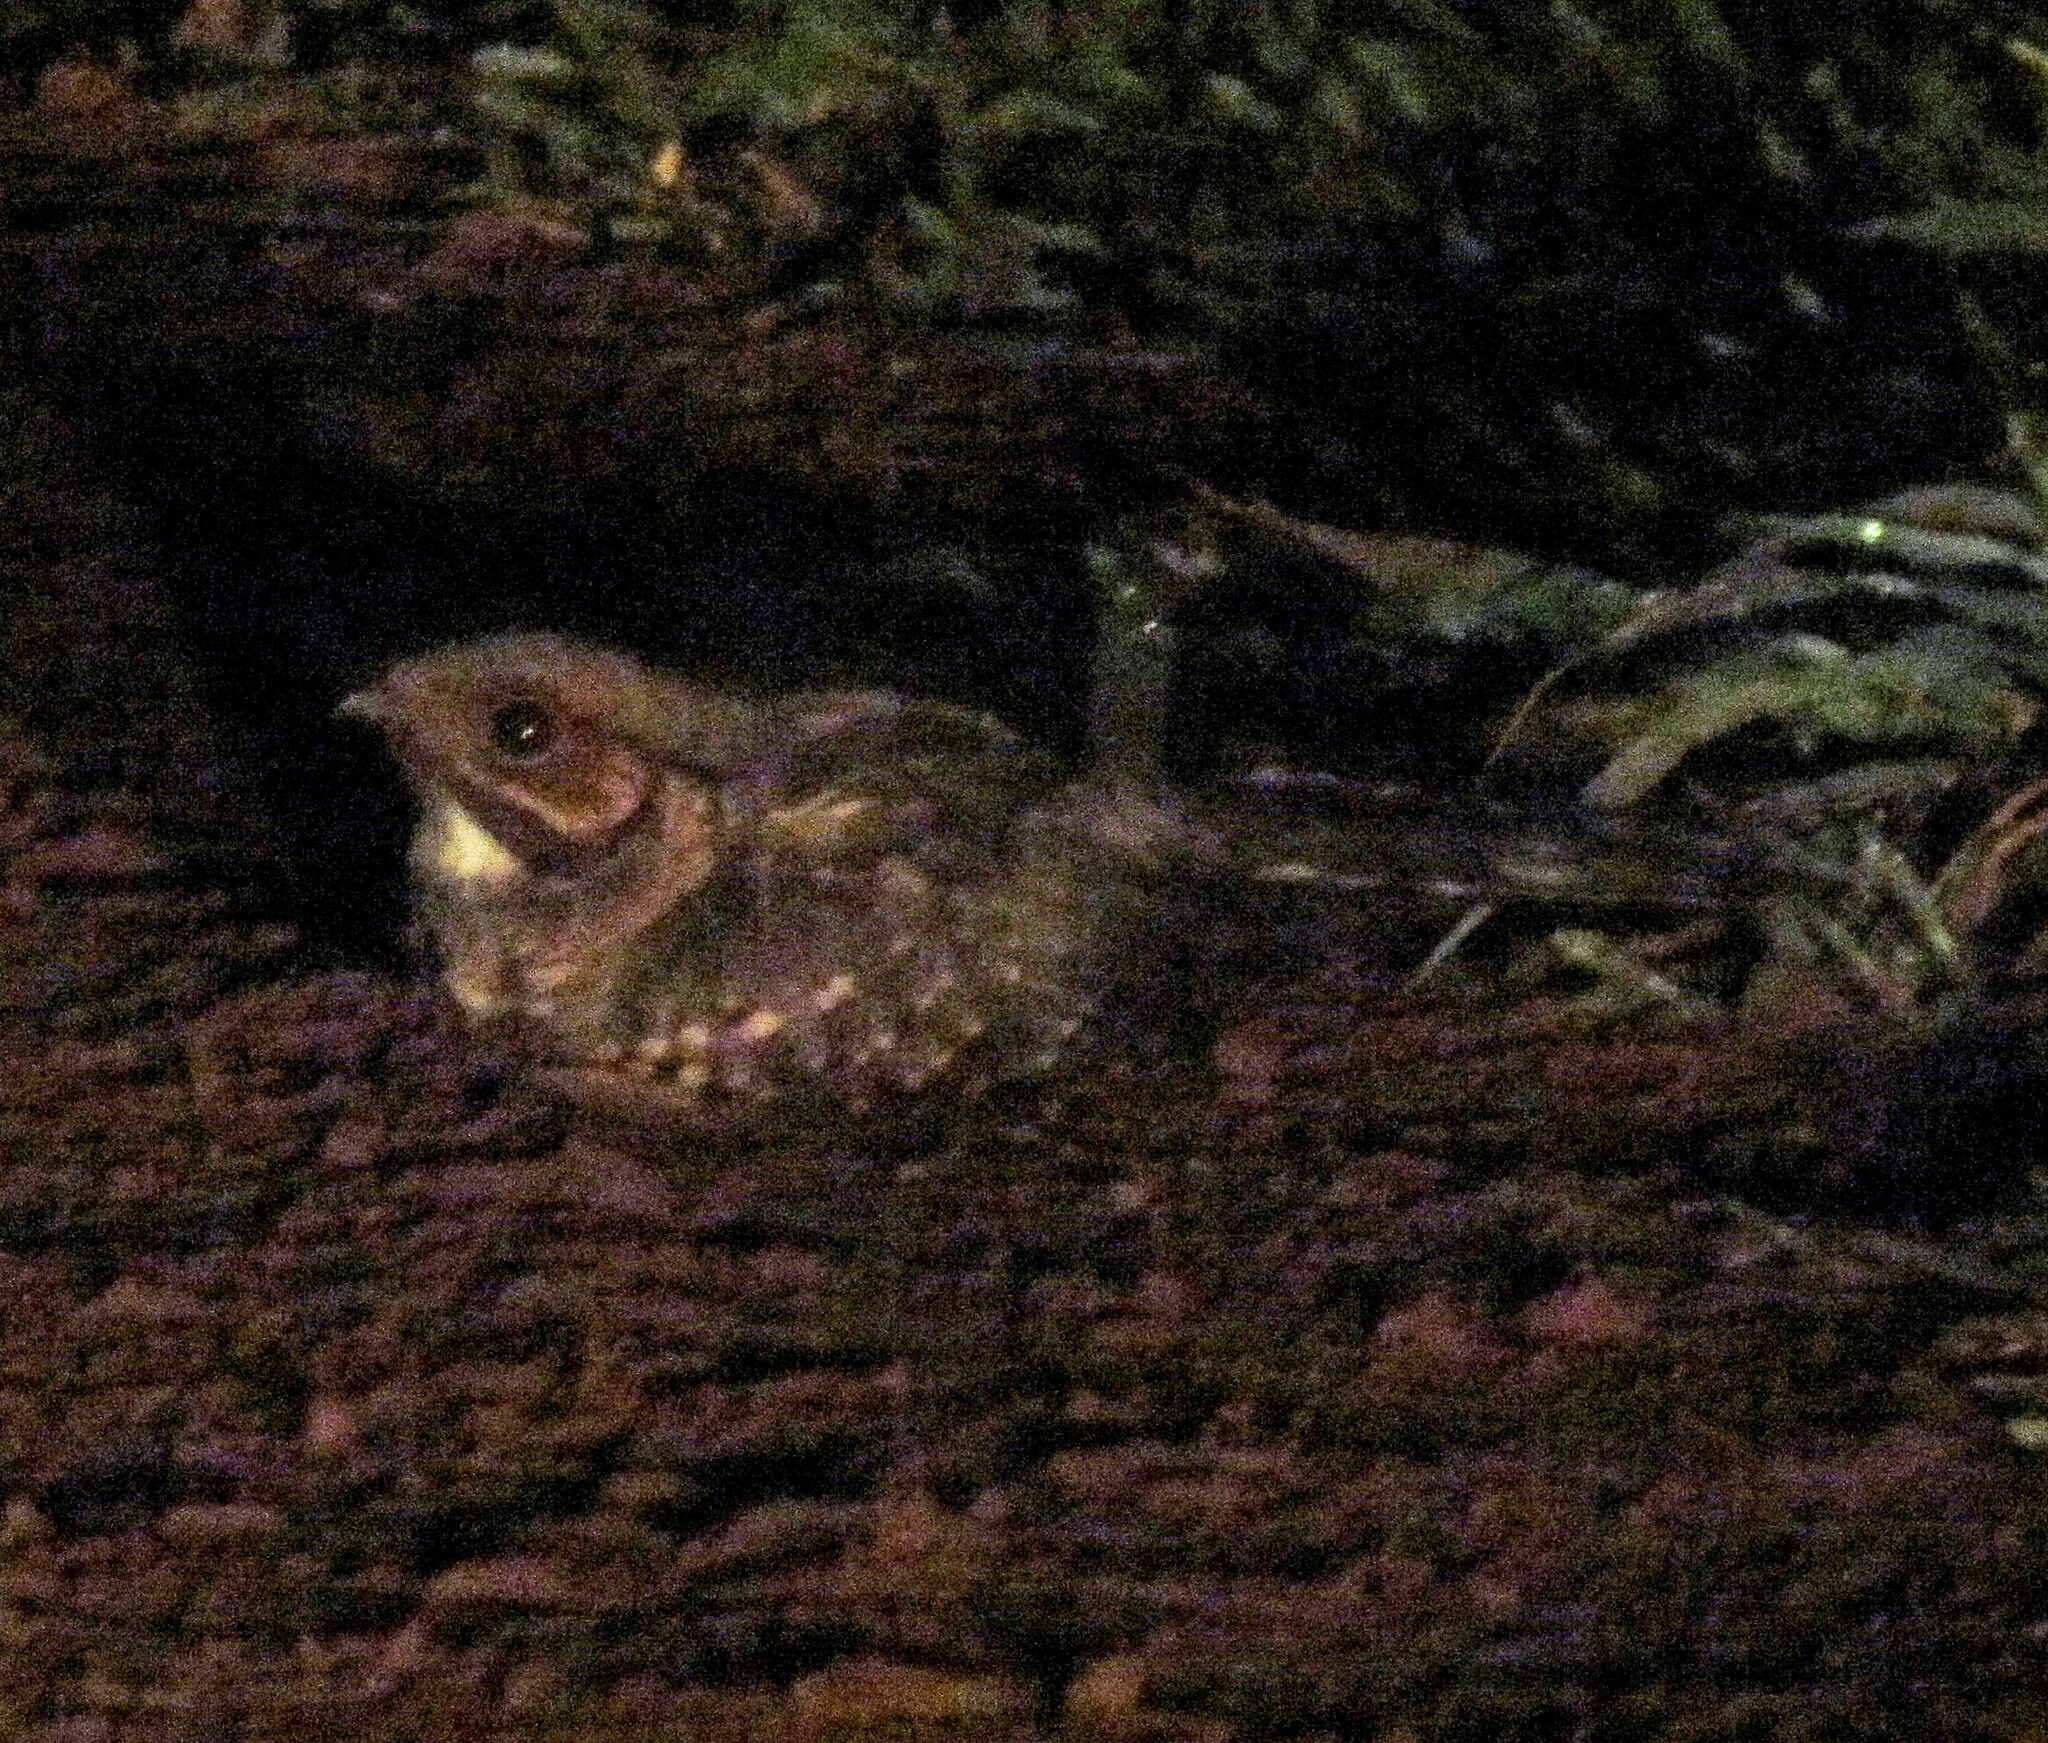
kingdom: Animalia
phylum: Chordata
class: Aves
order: Caprimulgiformes
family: Caprimulgidae
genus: Nyctidromus
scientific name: Nyctidromus albicollis
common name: Pauraque
